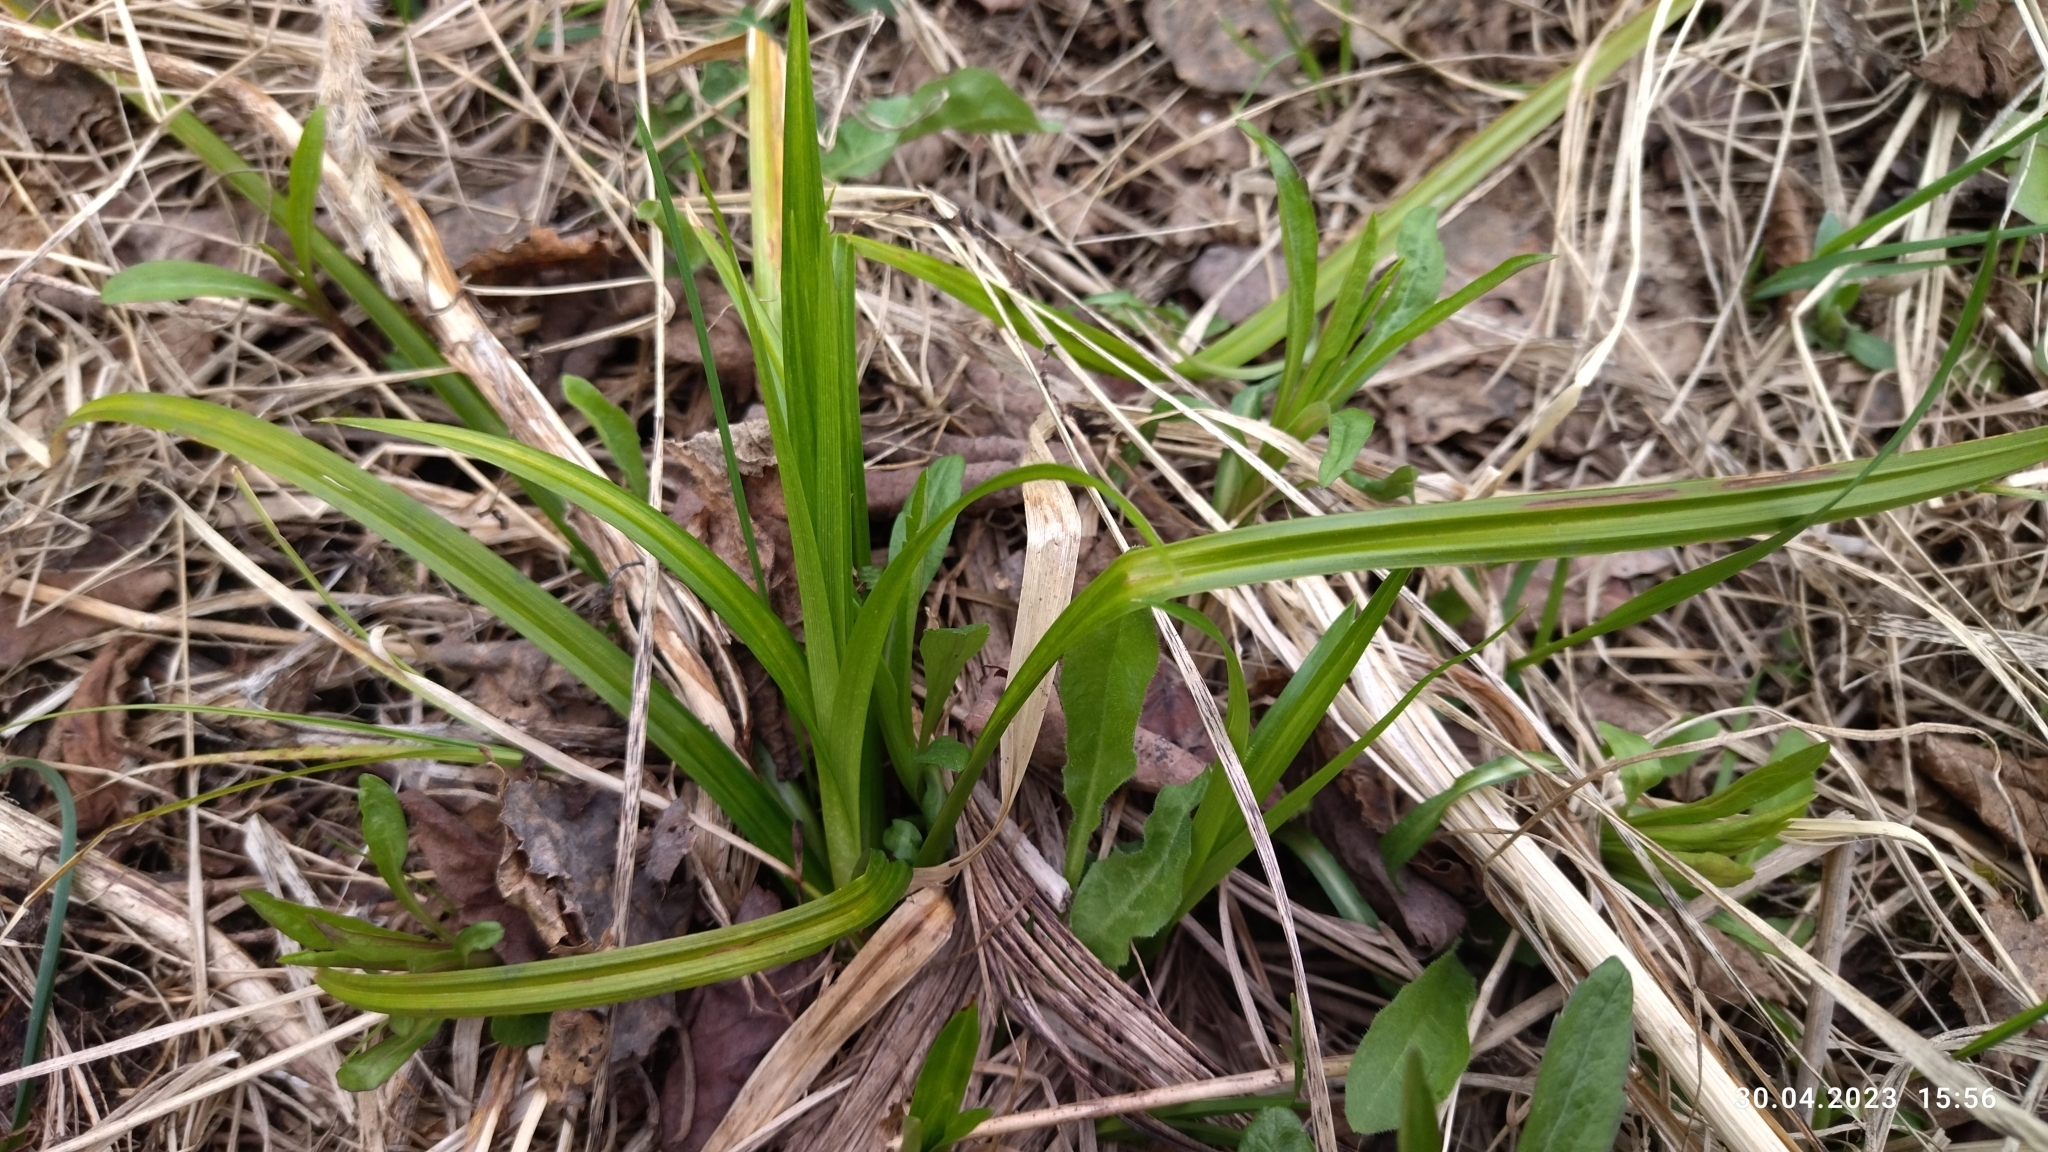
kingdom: Plantae
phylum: Tracheophyta
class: Liliopsida
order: Poales
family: Cyperaceae
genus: Scirpus
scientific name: Scirpus sylvaticus
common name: Wood club-rush
